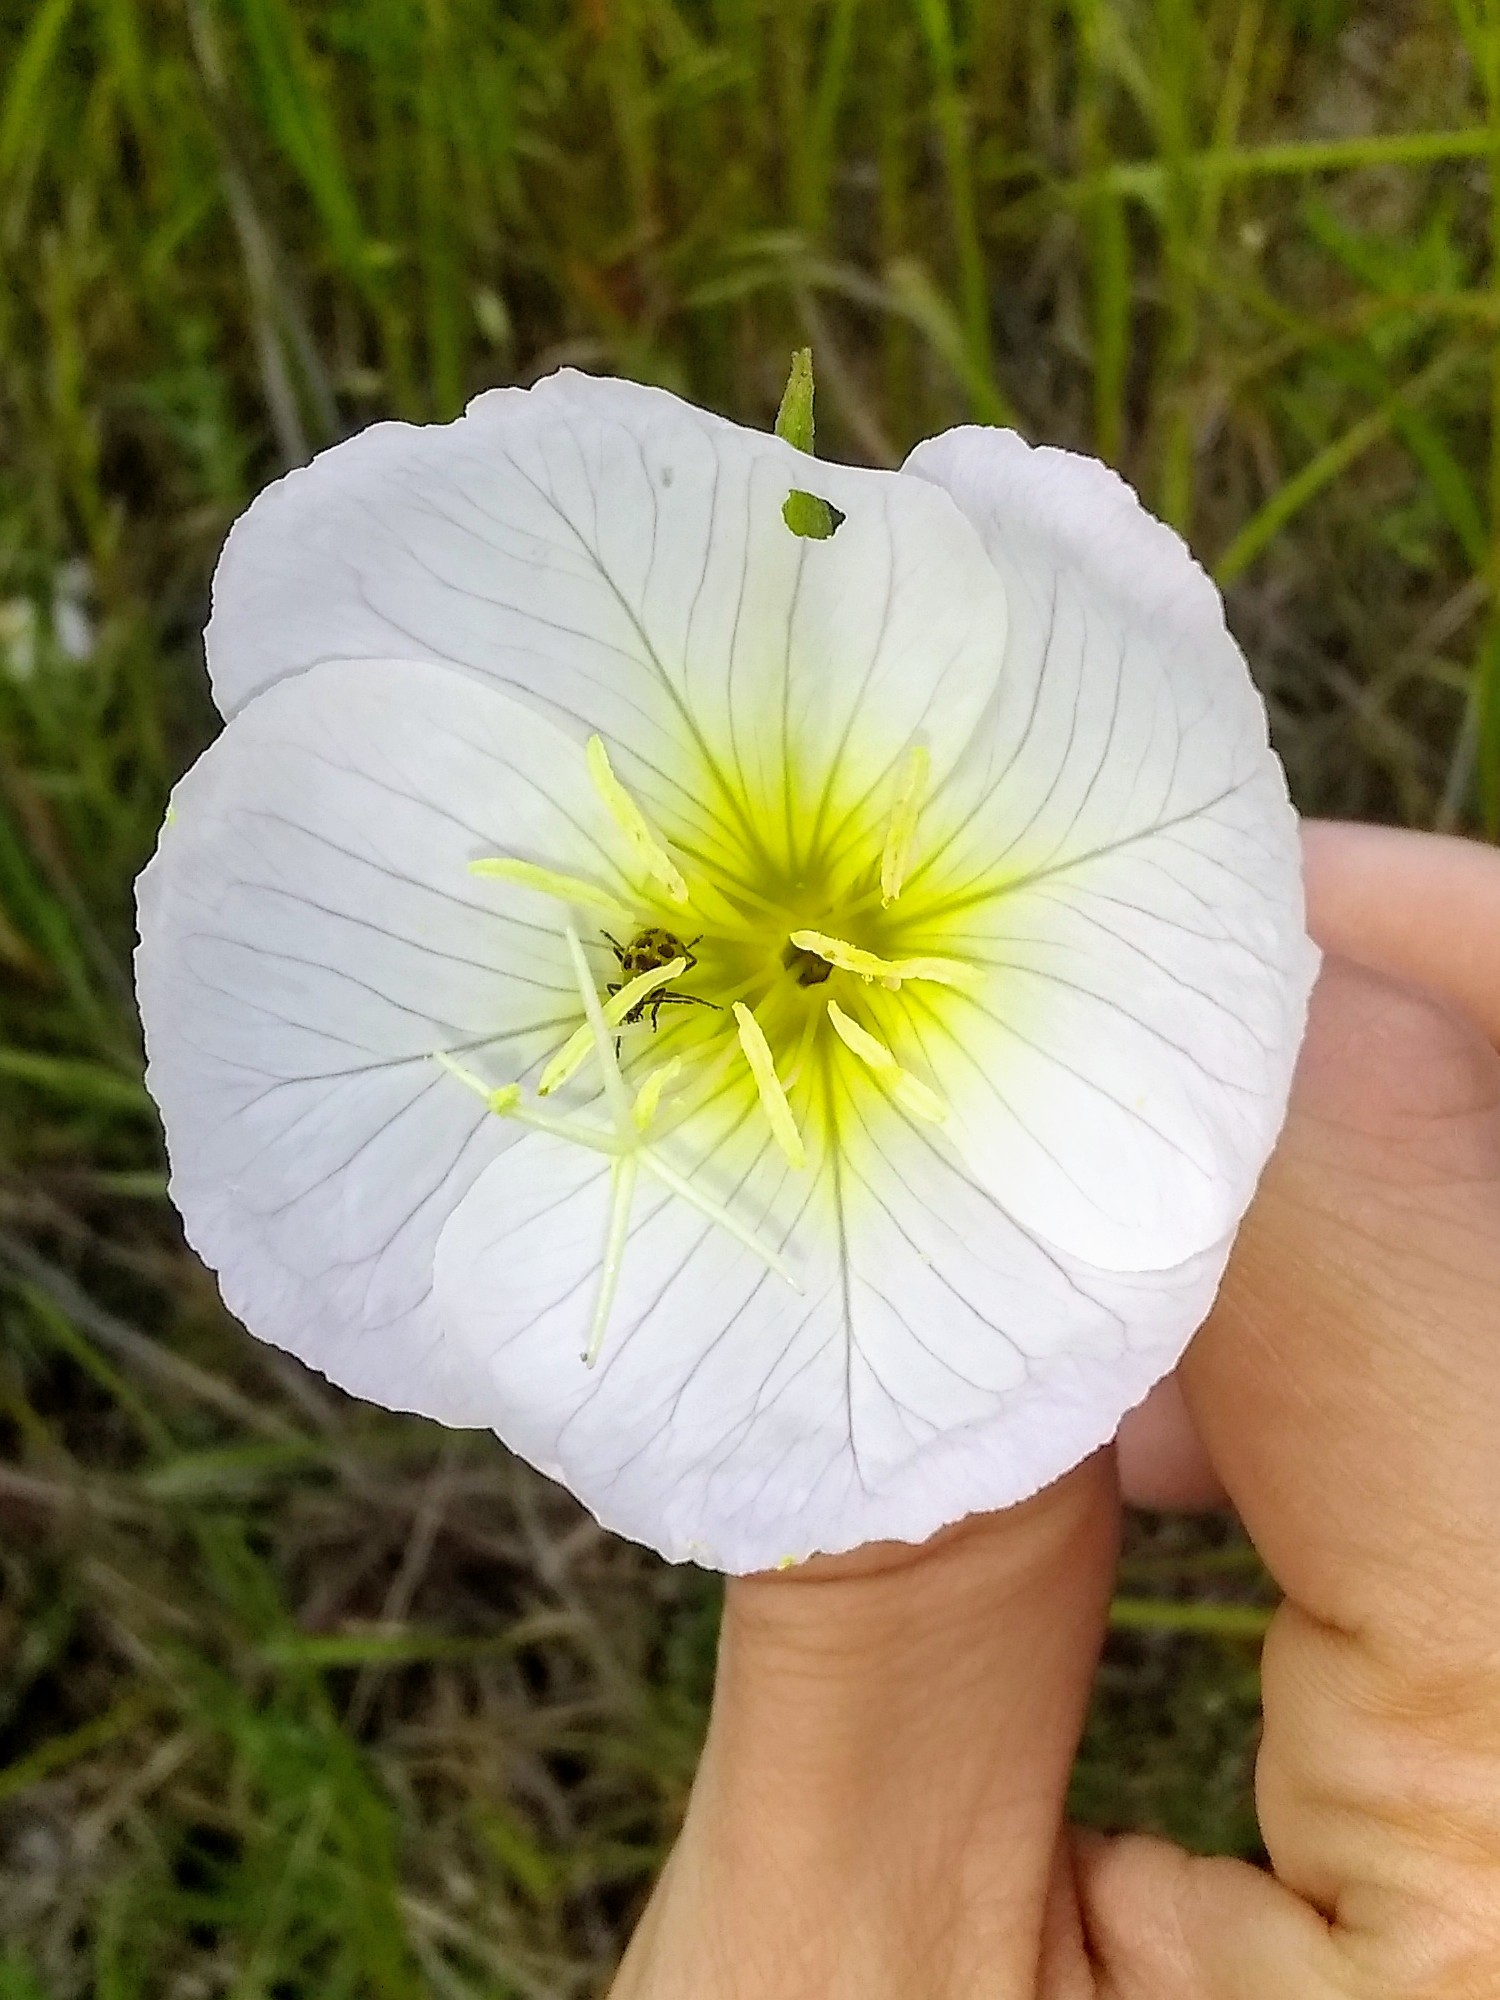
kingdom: Plantae
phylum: Tracheophyta
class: Magnoliopsida
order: Myrtales
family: Onagraceae
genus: Oenothera
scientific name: Oenothera speciosa
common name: White evening-primrose
